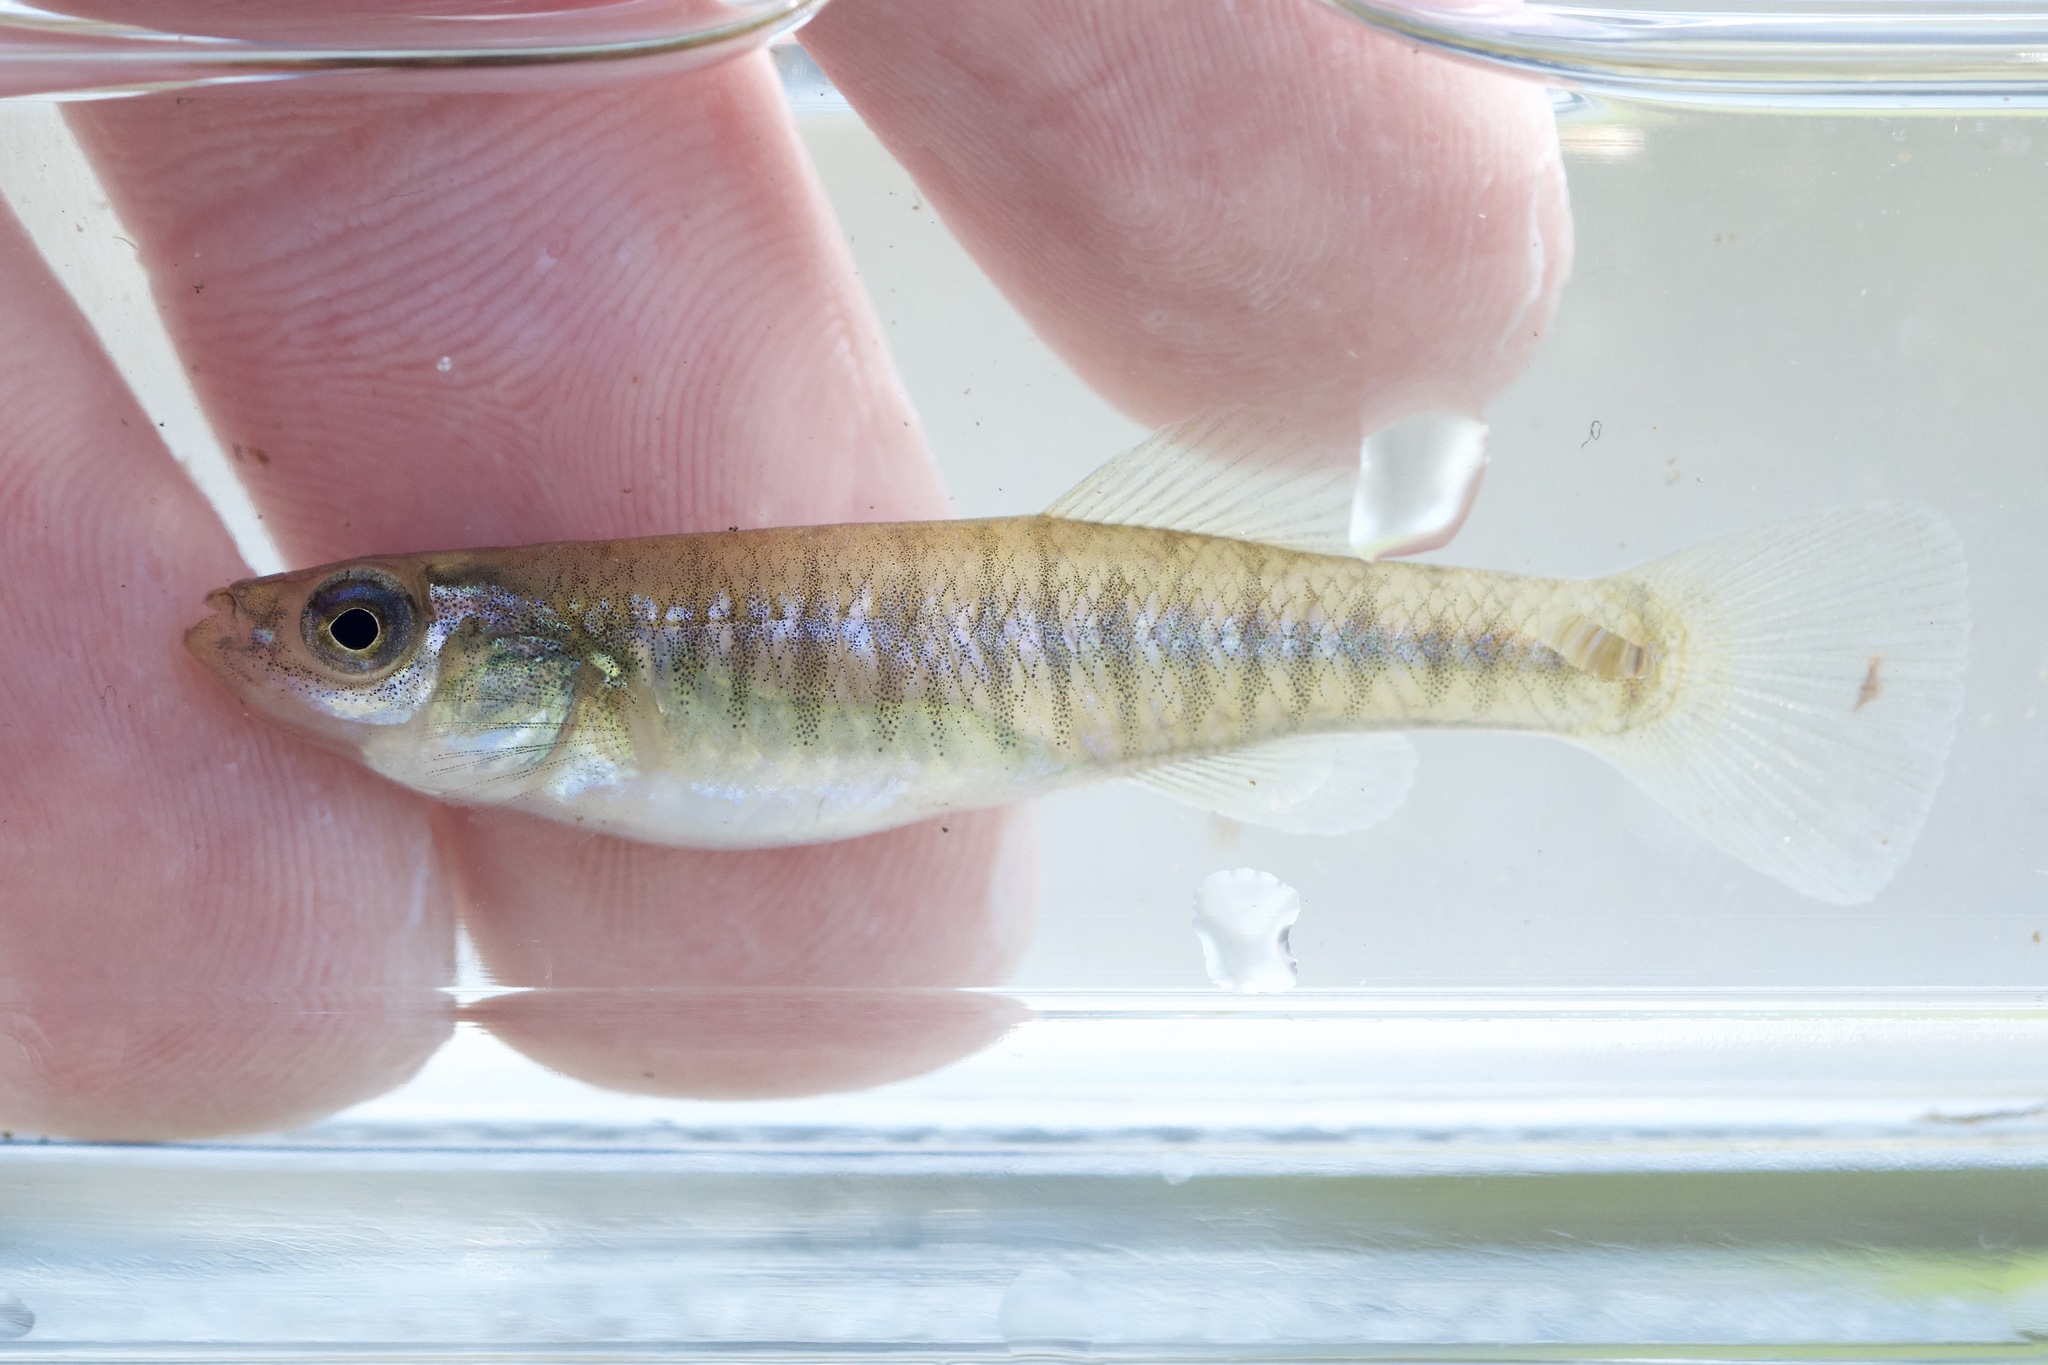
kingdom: Animalia
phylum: Chordata
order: Cyprinodontiformes
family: Fundulidae
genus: Fundulus
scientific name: Fundulus diaphanus
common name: Banded killifish
